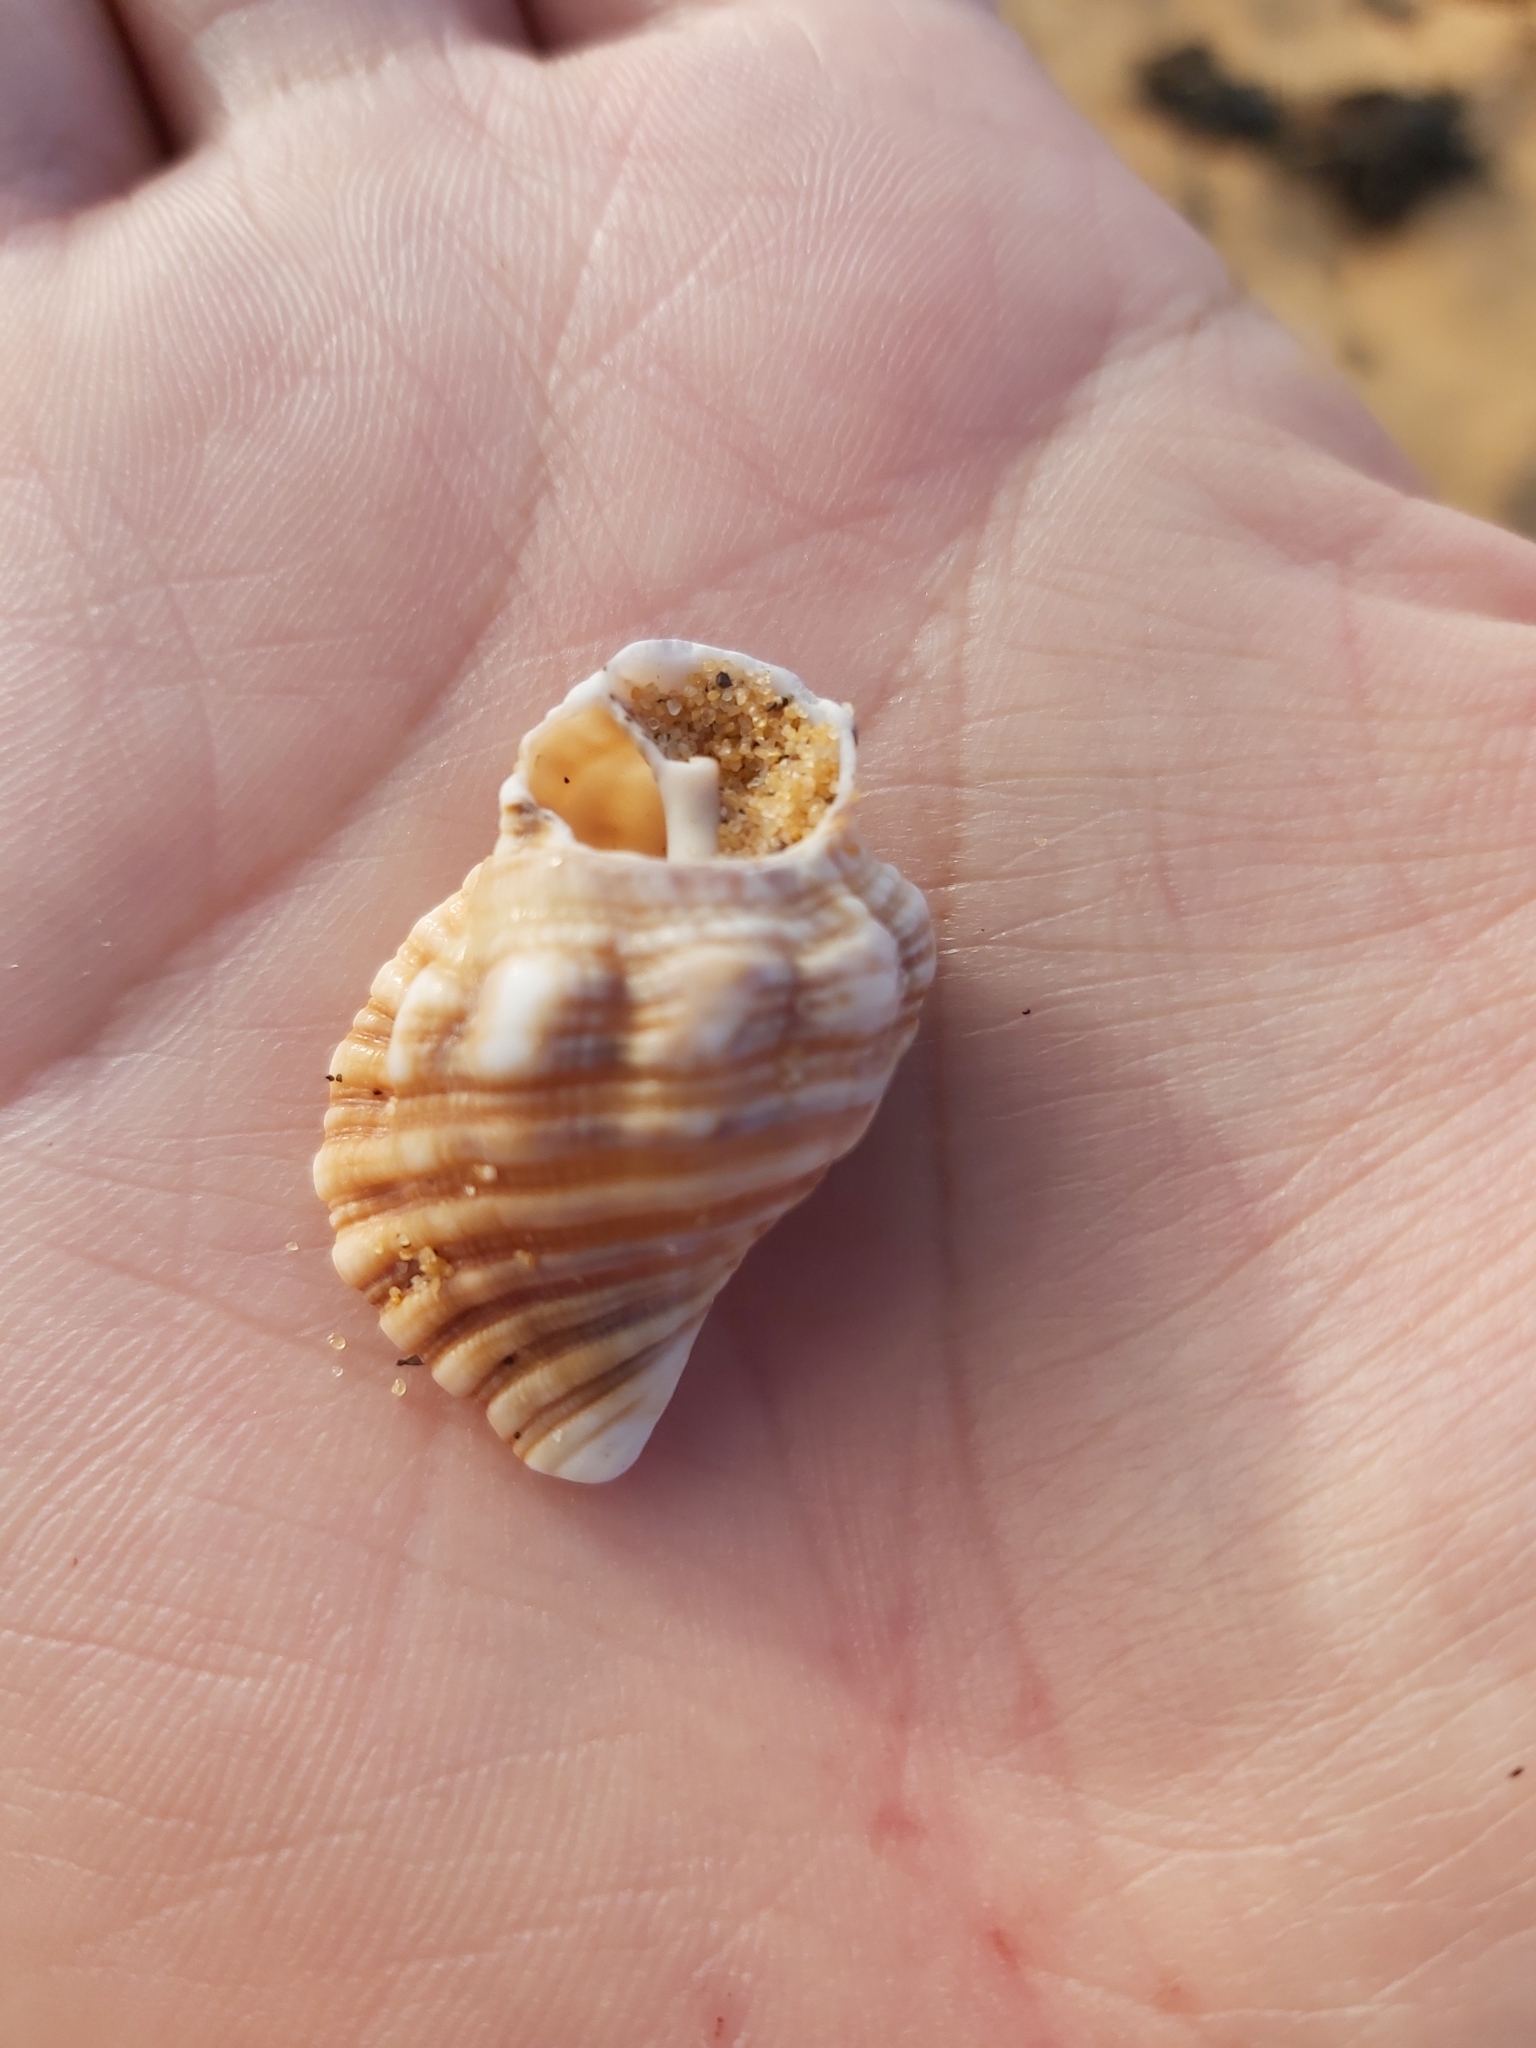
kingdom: Animalia
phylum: Mollusca
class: Gastropoda
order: Littorinimorpha
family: Cymatiidae
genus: Cabestana
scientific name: Cabestana spengleri
